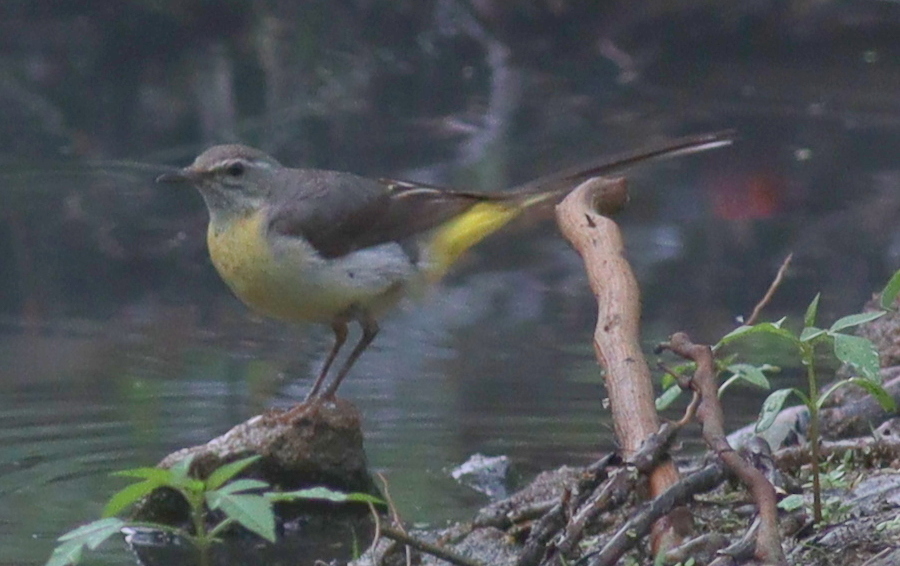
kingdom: Animalia
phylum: Chordata
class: Aves
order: Passeriformes
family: Motacillidae
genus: Motacilla
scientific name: Motacilla cinerea
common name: Grey wagtail
